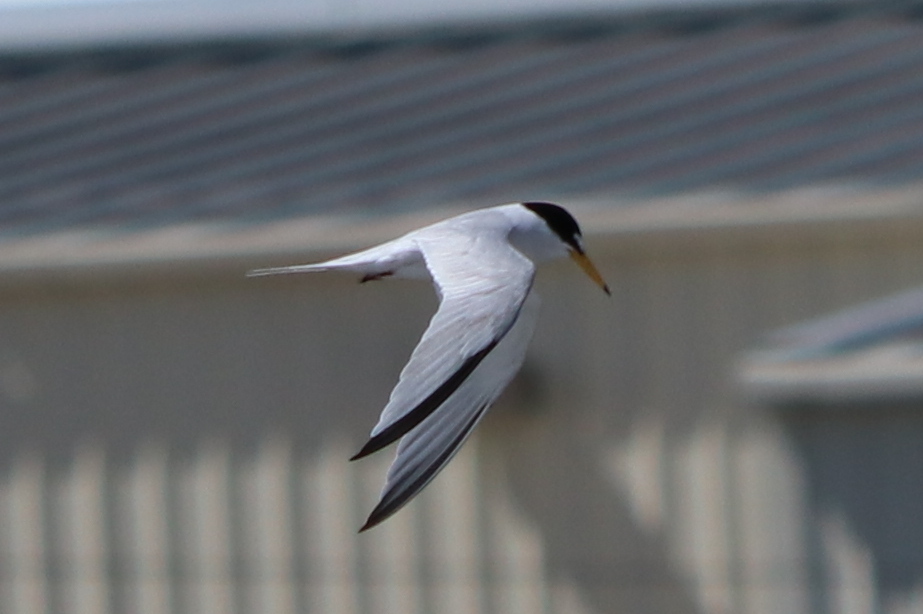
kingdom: Animalia
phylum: Chordata
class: Aves
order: Charadriiformes
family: Laridae
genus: Sternula
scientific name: Sternula antillarum
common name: Least tern
